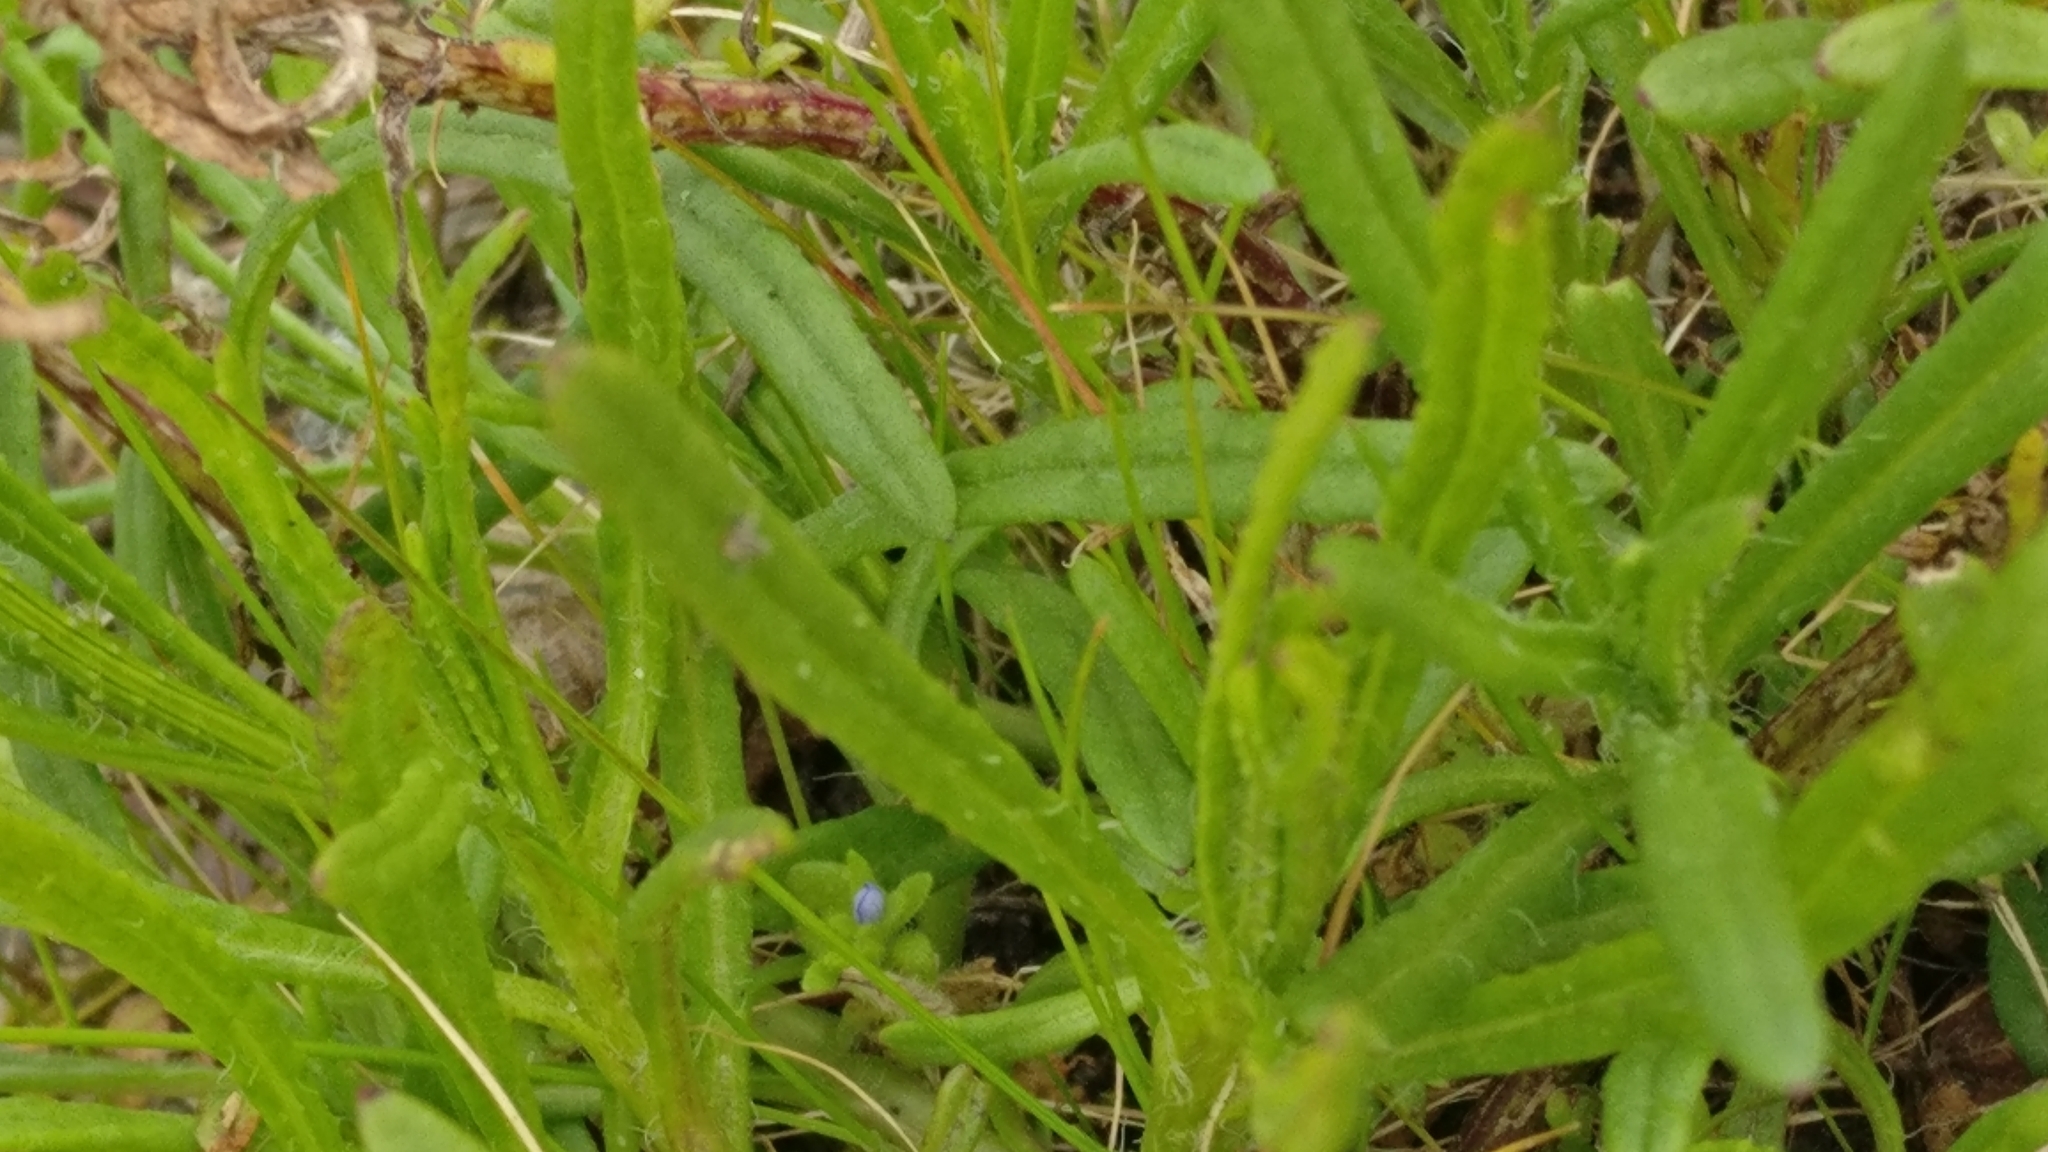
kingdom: Plantae
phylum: Tracheophyta
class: Magnoliopsida
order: Asterales
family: Asteraceae
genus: Senecio
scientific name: Senecio inaequidens
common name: Narrow-leaved ragwort
